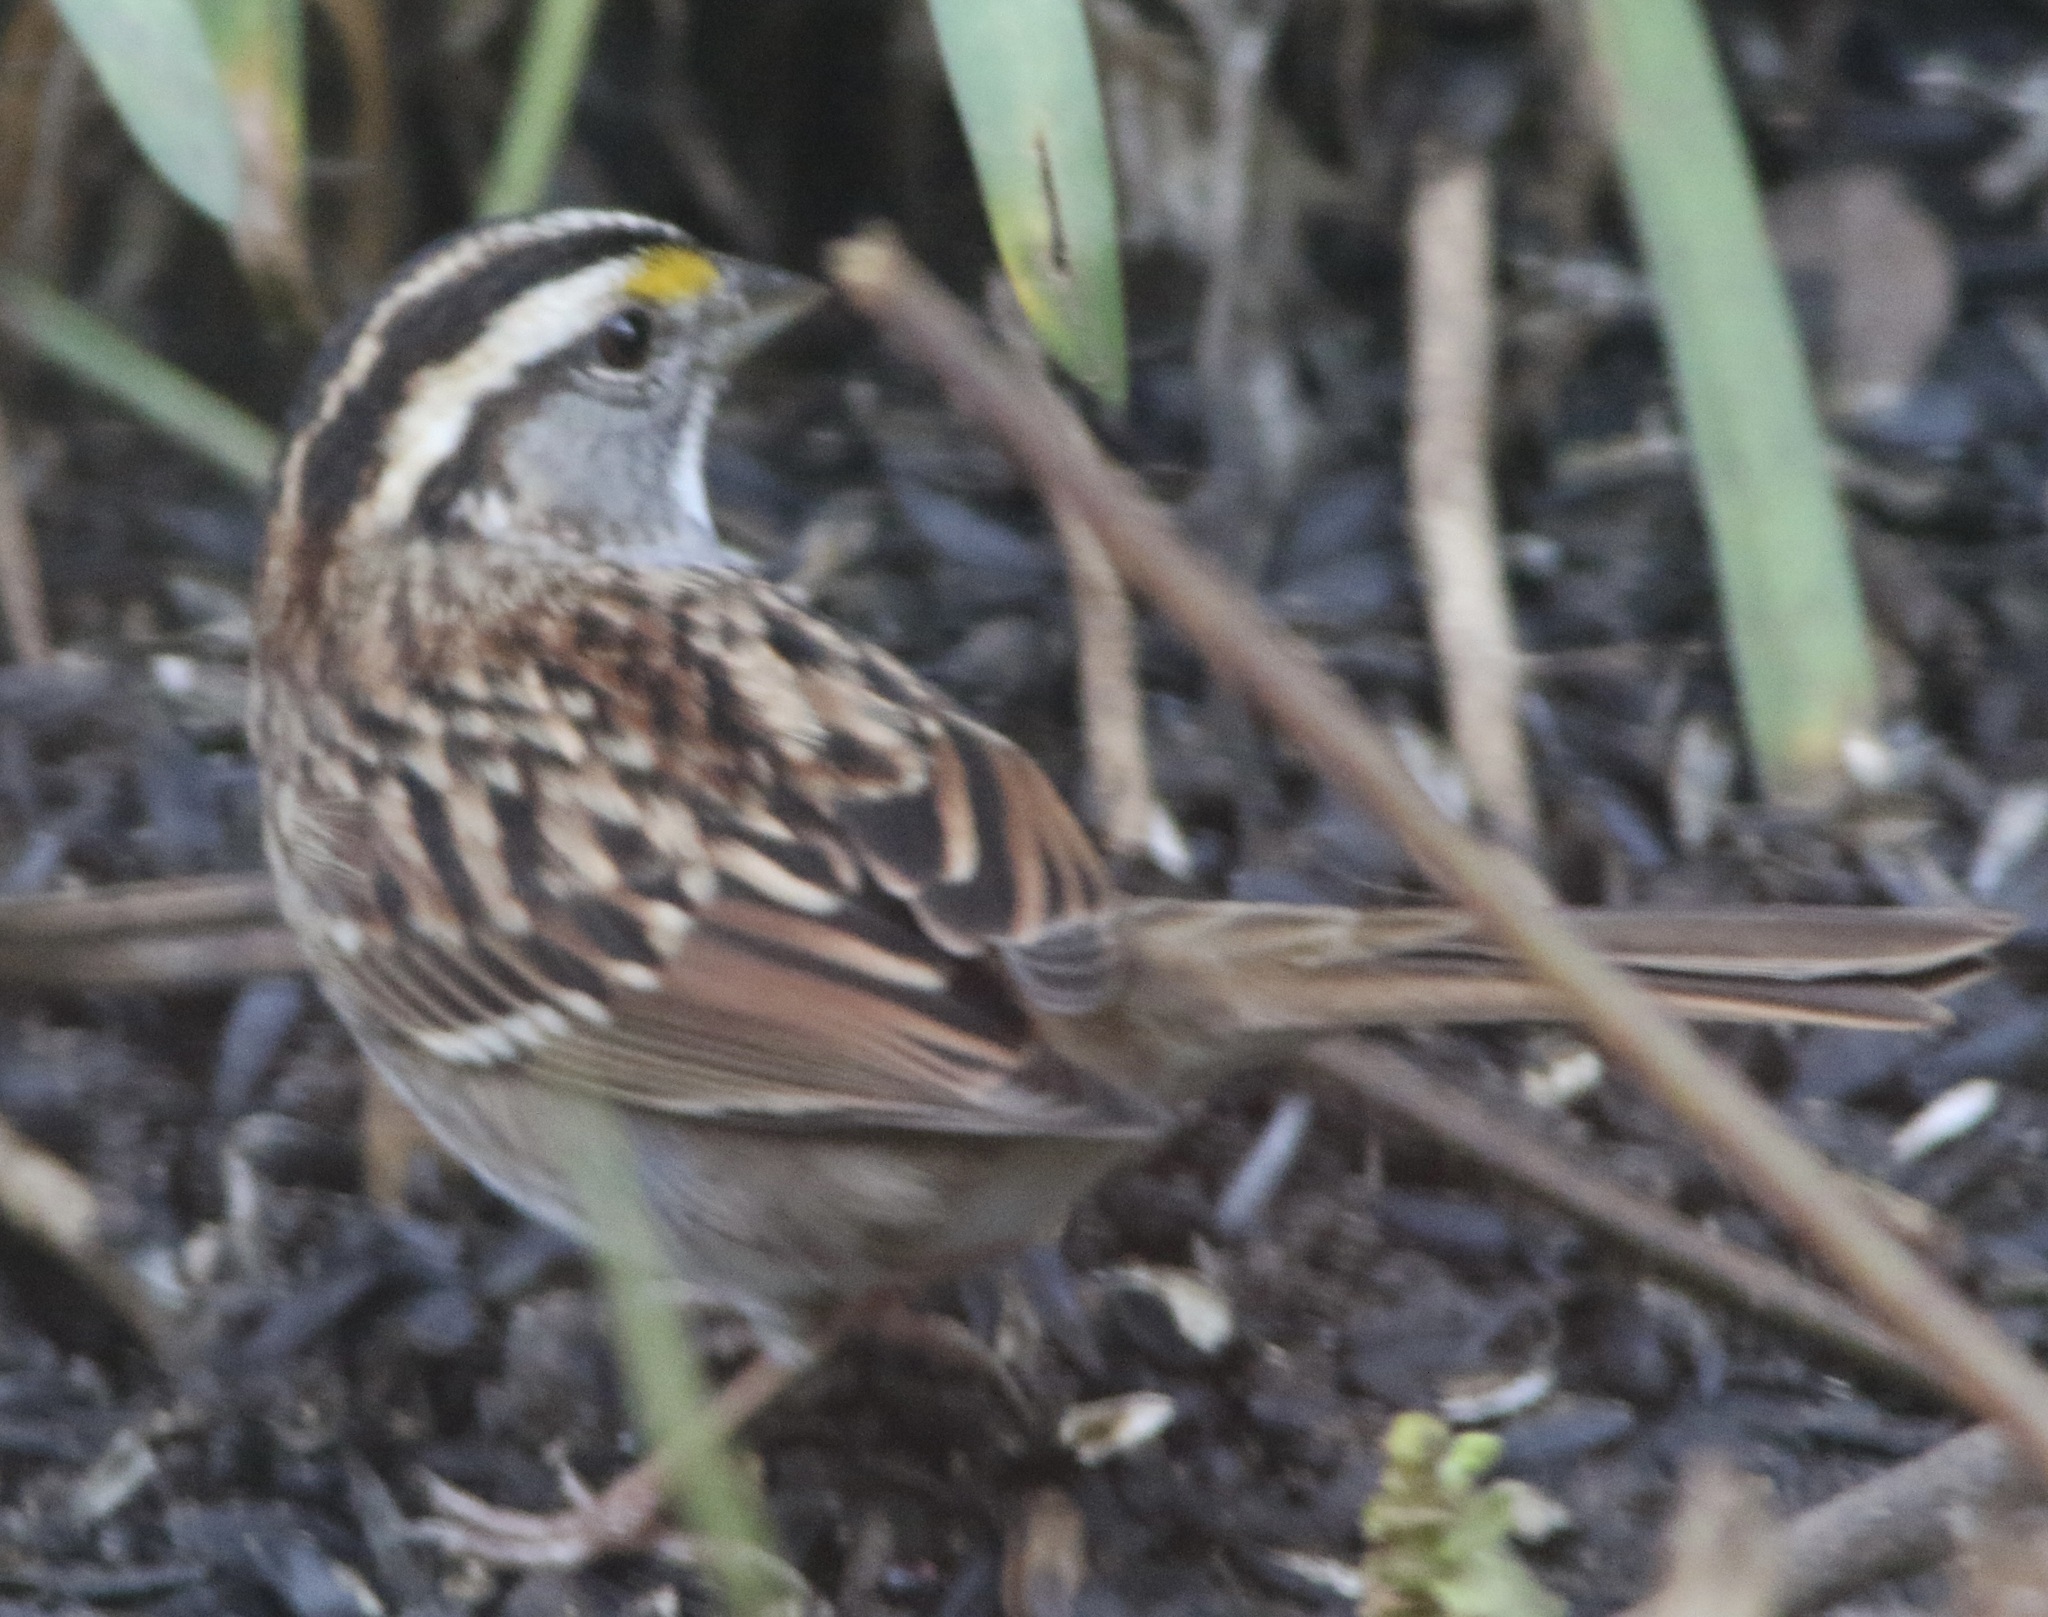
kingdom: Animalia
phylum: Chordata
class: Aves
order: Passeriformes
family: Passerellidae
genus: Zonotrichia
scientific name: Zonotrichia albicollis
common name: White-throated sparrow
